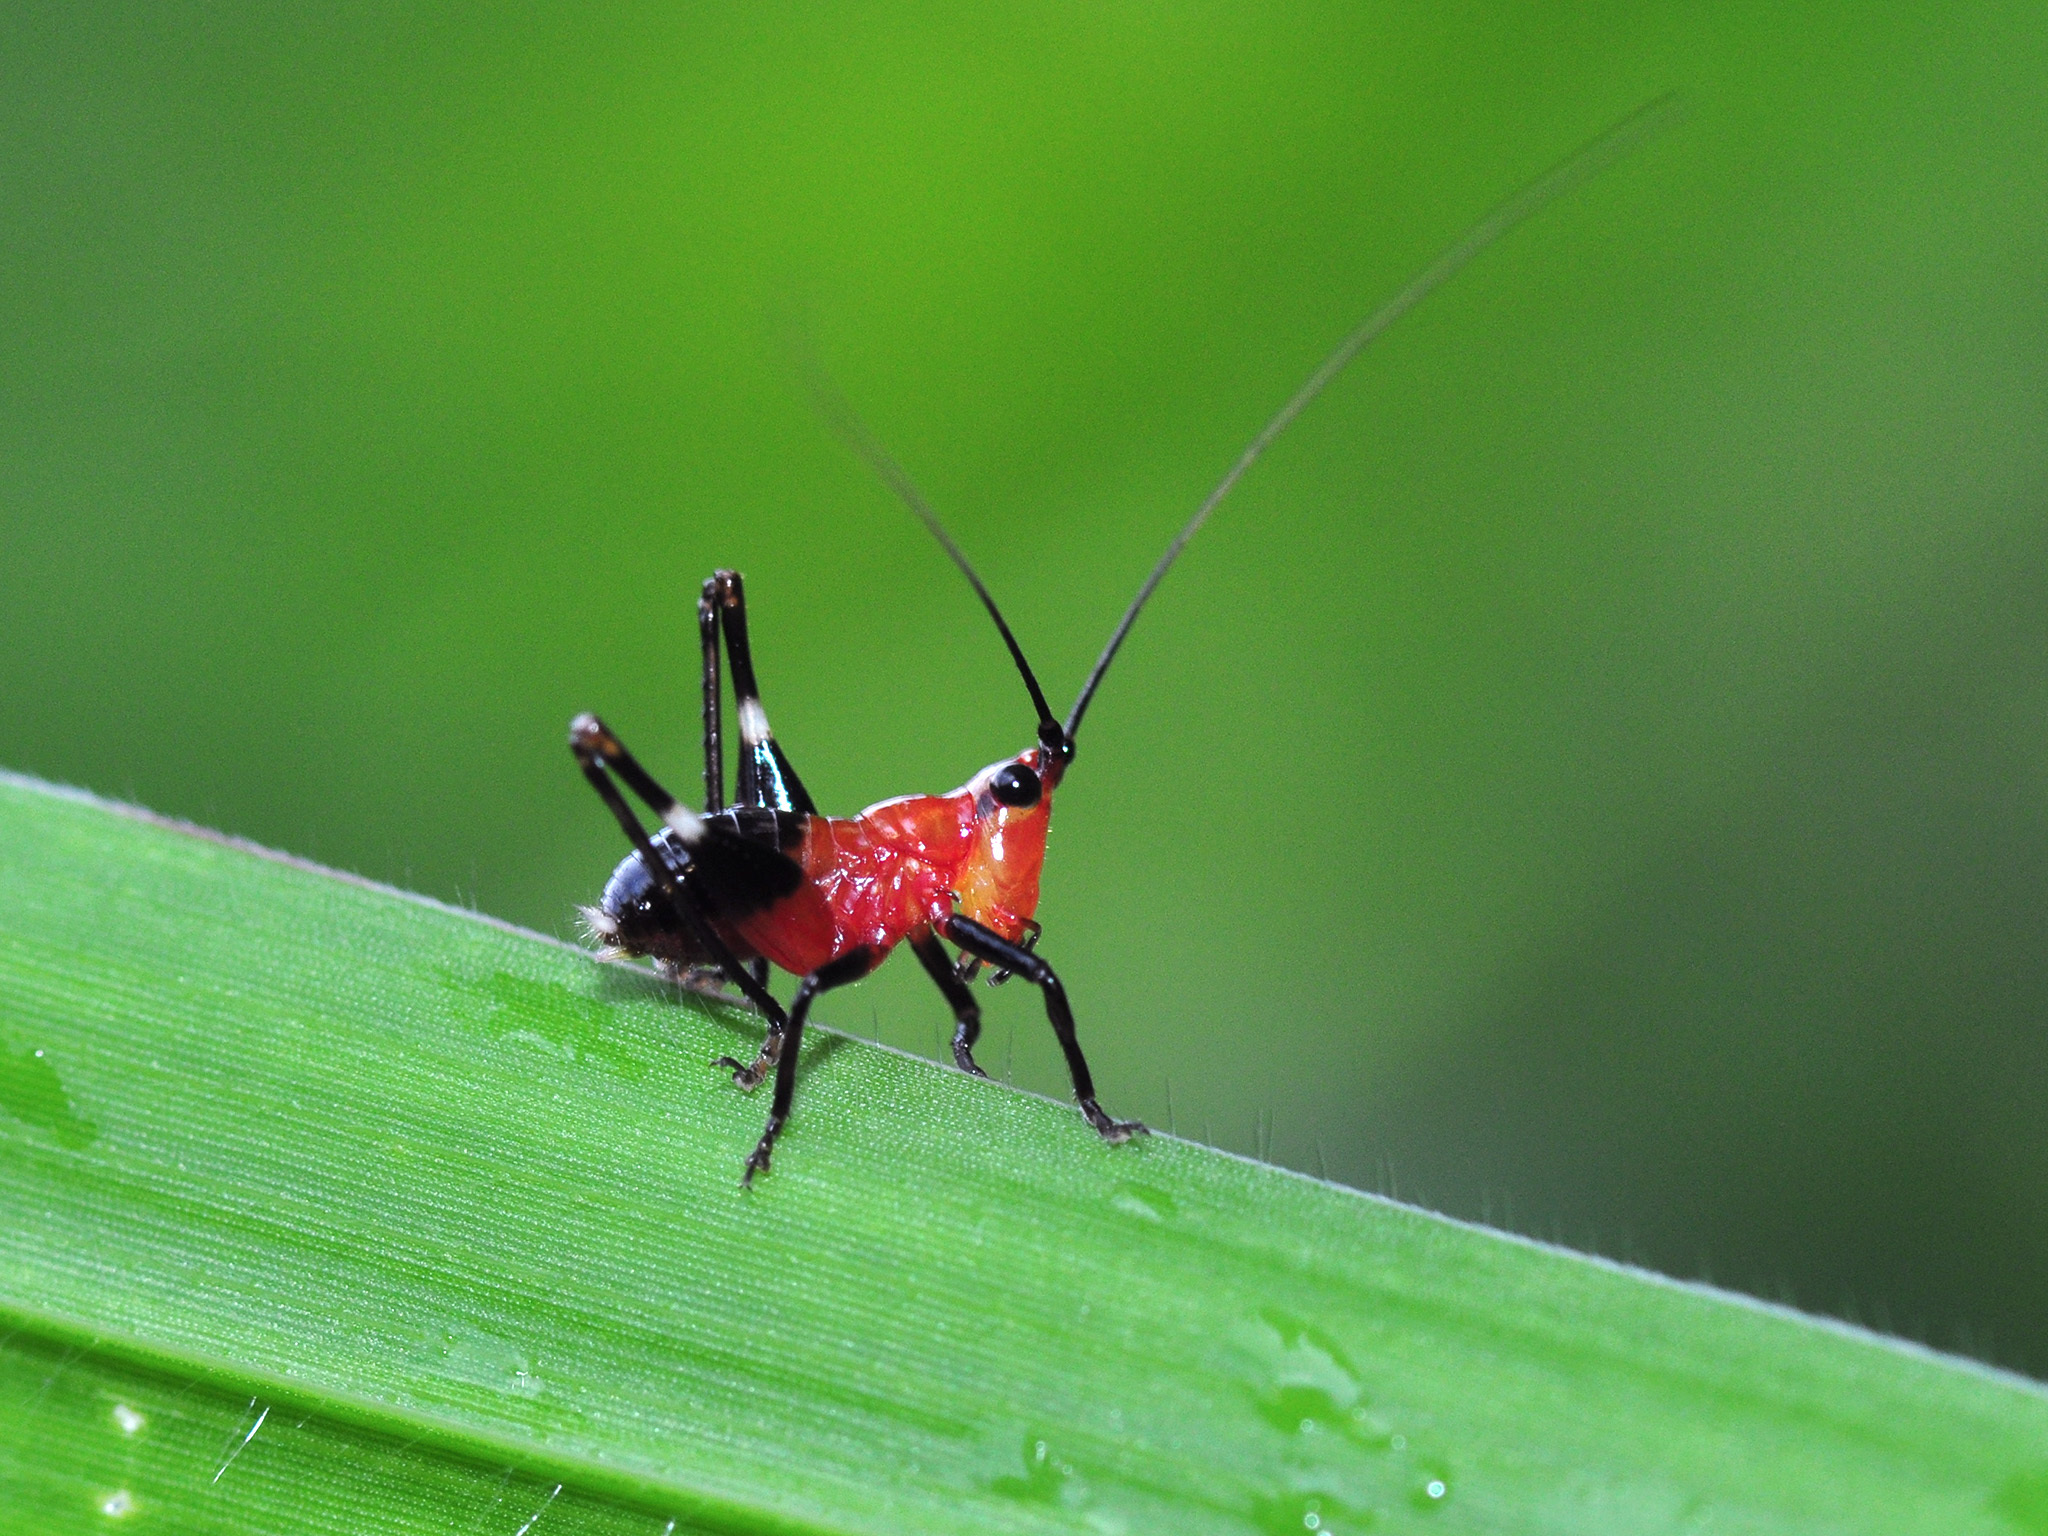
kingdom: Animalia
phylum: Arthropoda
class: Insecta
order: Orthoptera
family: Tettigoniidae
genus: Conocephalus
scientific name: Conocephalus melaenus
